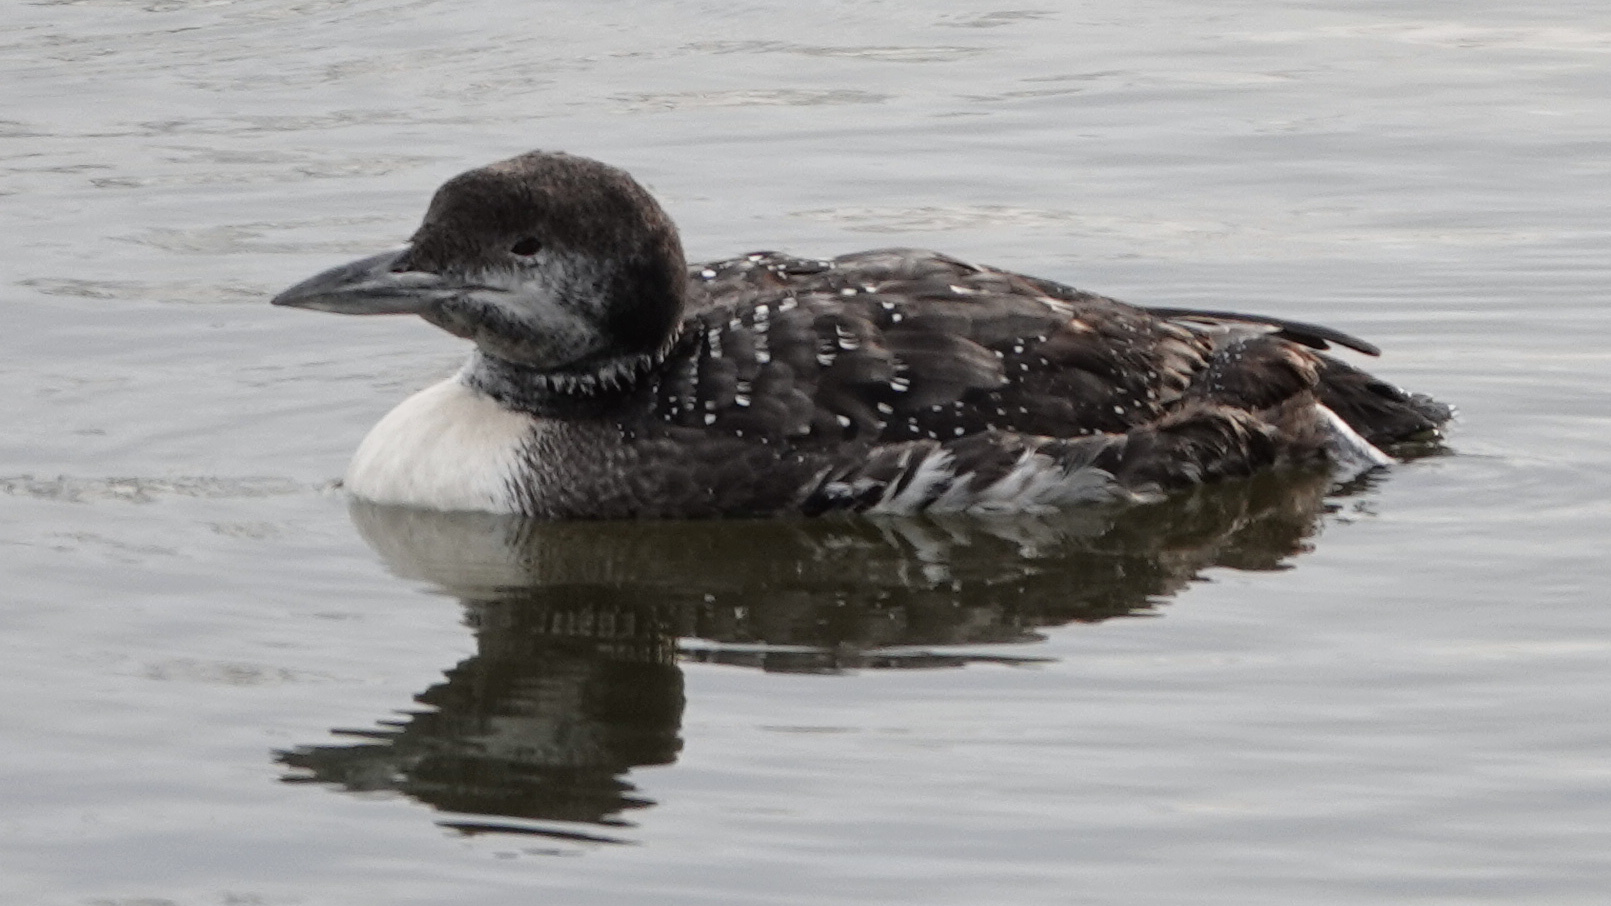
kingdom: Animalia
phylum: Chordata
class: Aves
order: Gaviiformes
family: Gaviidae
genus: Gavia
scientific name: Gavia immer
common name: Common loon
